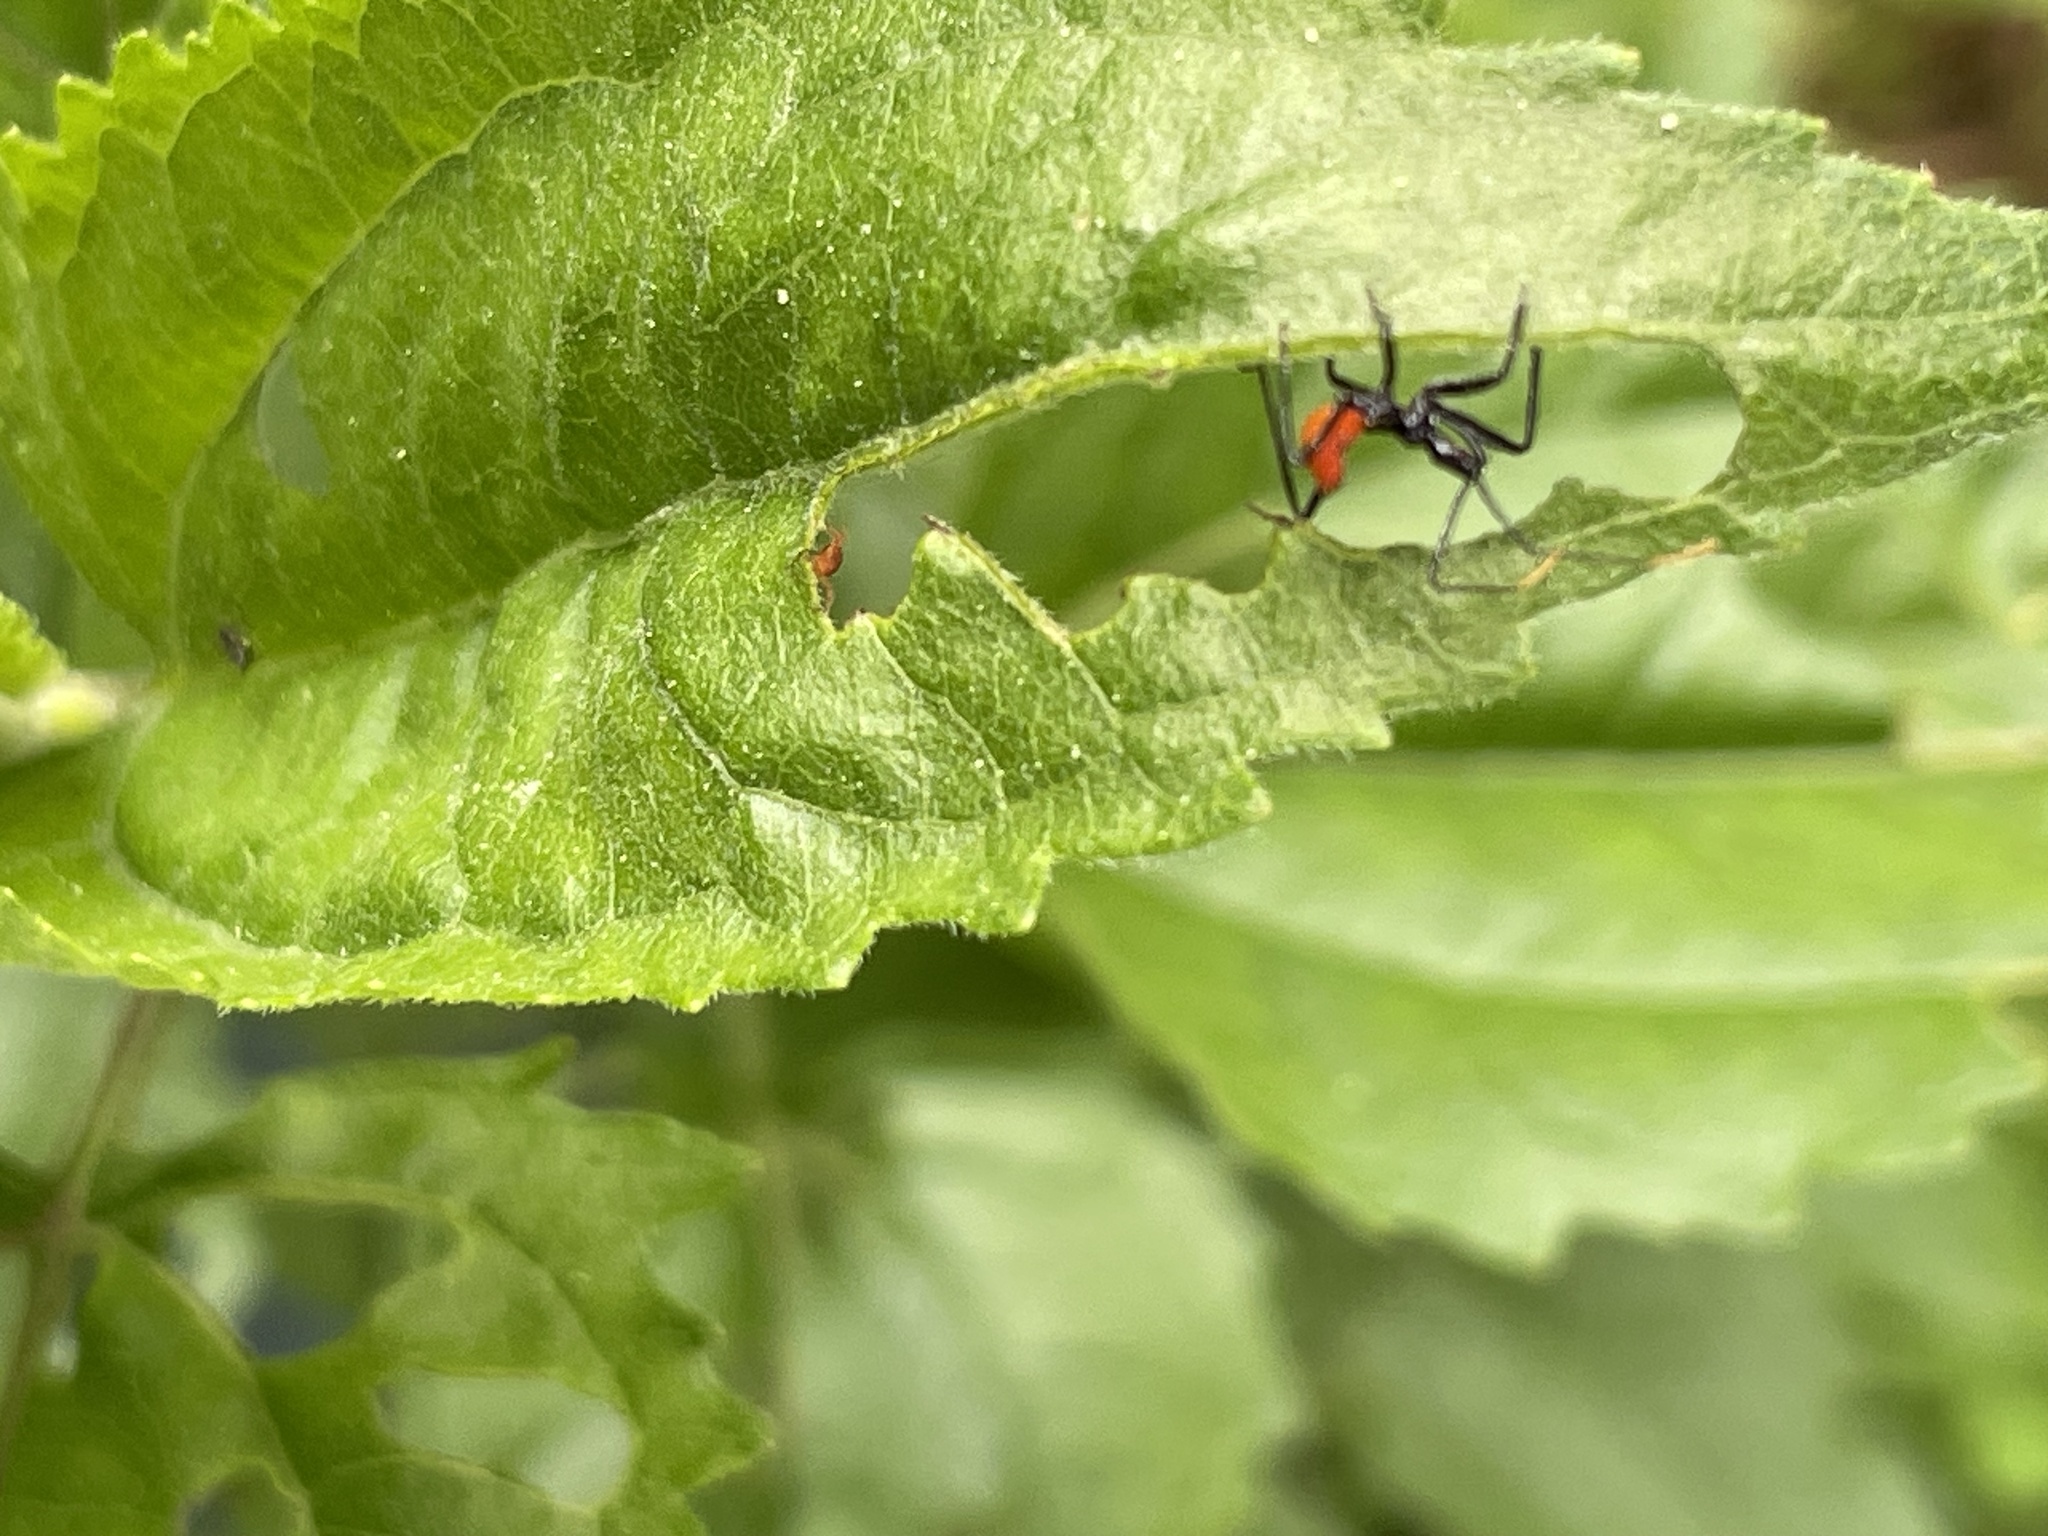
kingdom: Animalia
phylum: Arthropoda
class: Insecta
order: Hemiptera
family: Reduviidae
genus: Arilus
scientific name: Arilus cristatus
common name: North american wheel bug
